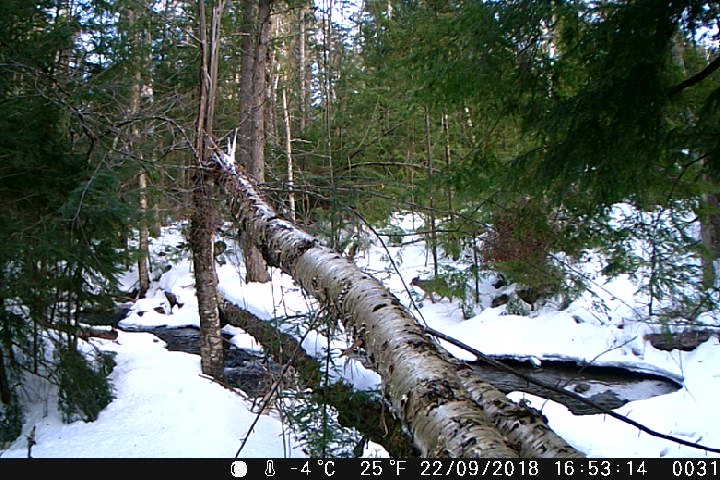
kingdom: Animalia
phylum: Chordata
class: Mammalia
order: Carnivora
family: Canidae
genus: Canis
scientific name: Canis latrans
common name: Coyote
